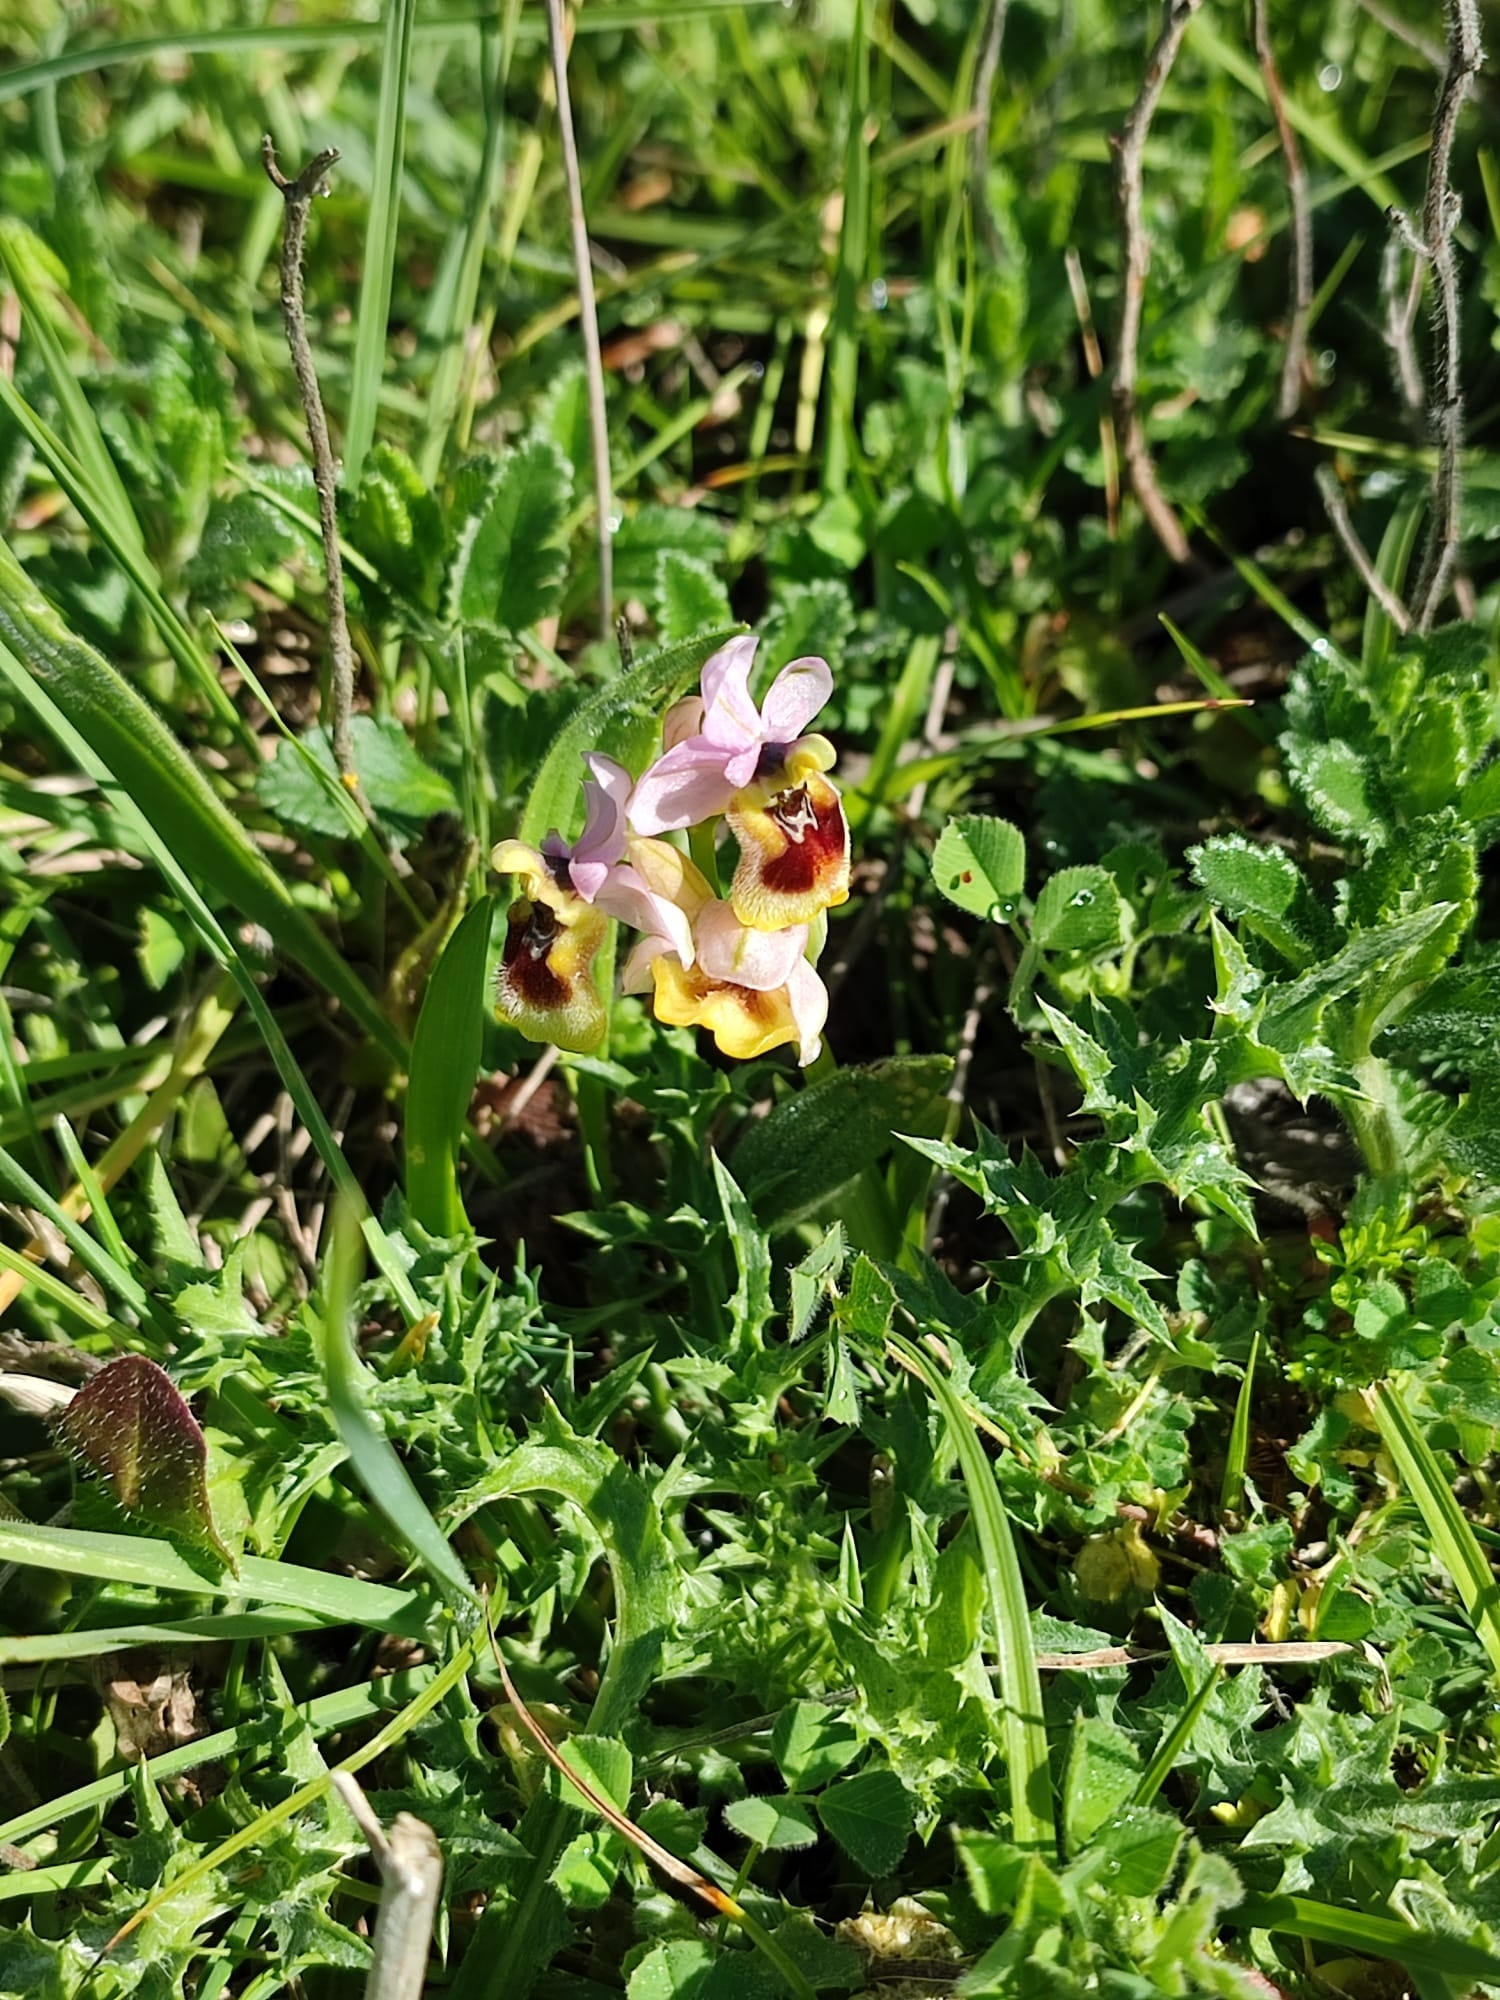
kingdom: Plantae
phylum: Tracheophyta
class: Liliopsida
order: Asparagales
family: Orchidaceae
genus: Ophrys
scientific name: Ophrys tenthredinifera
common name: Sawfly orchid
